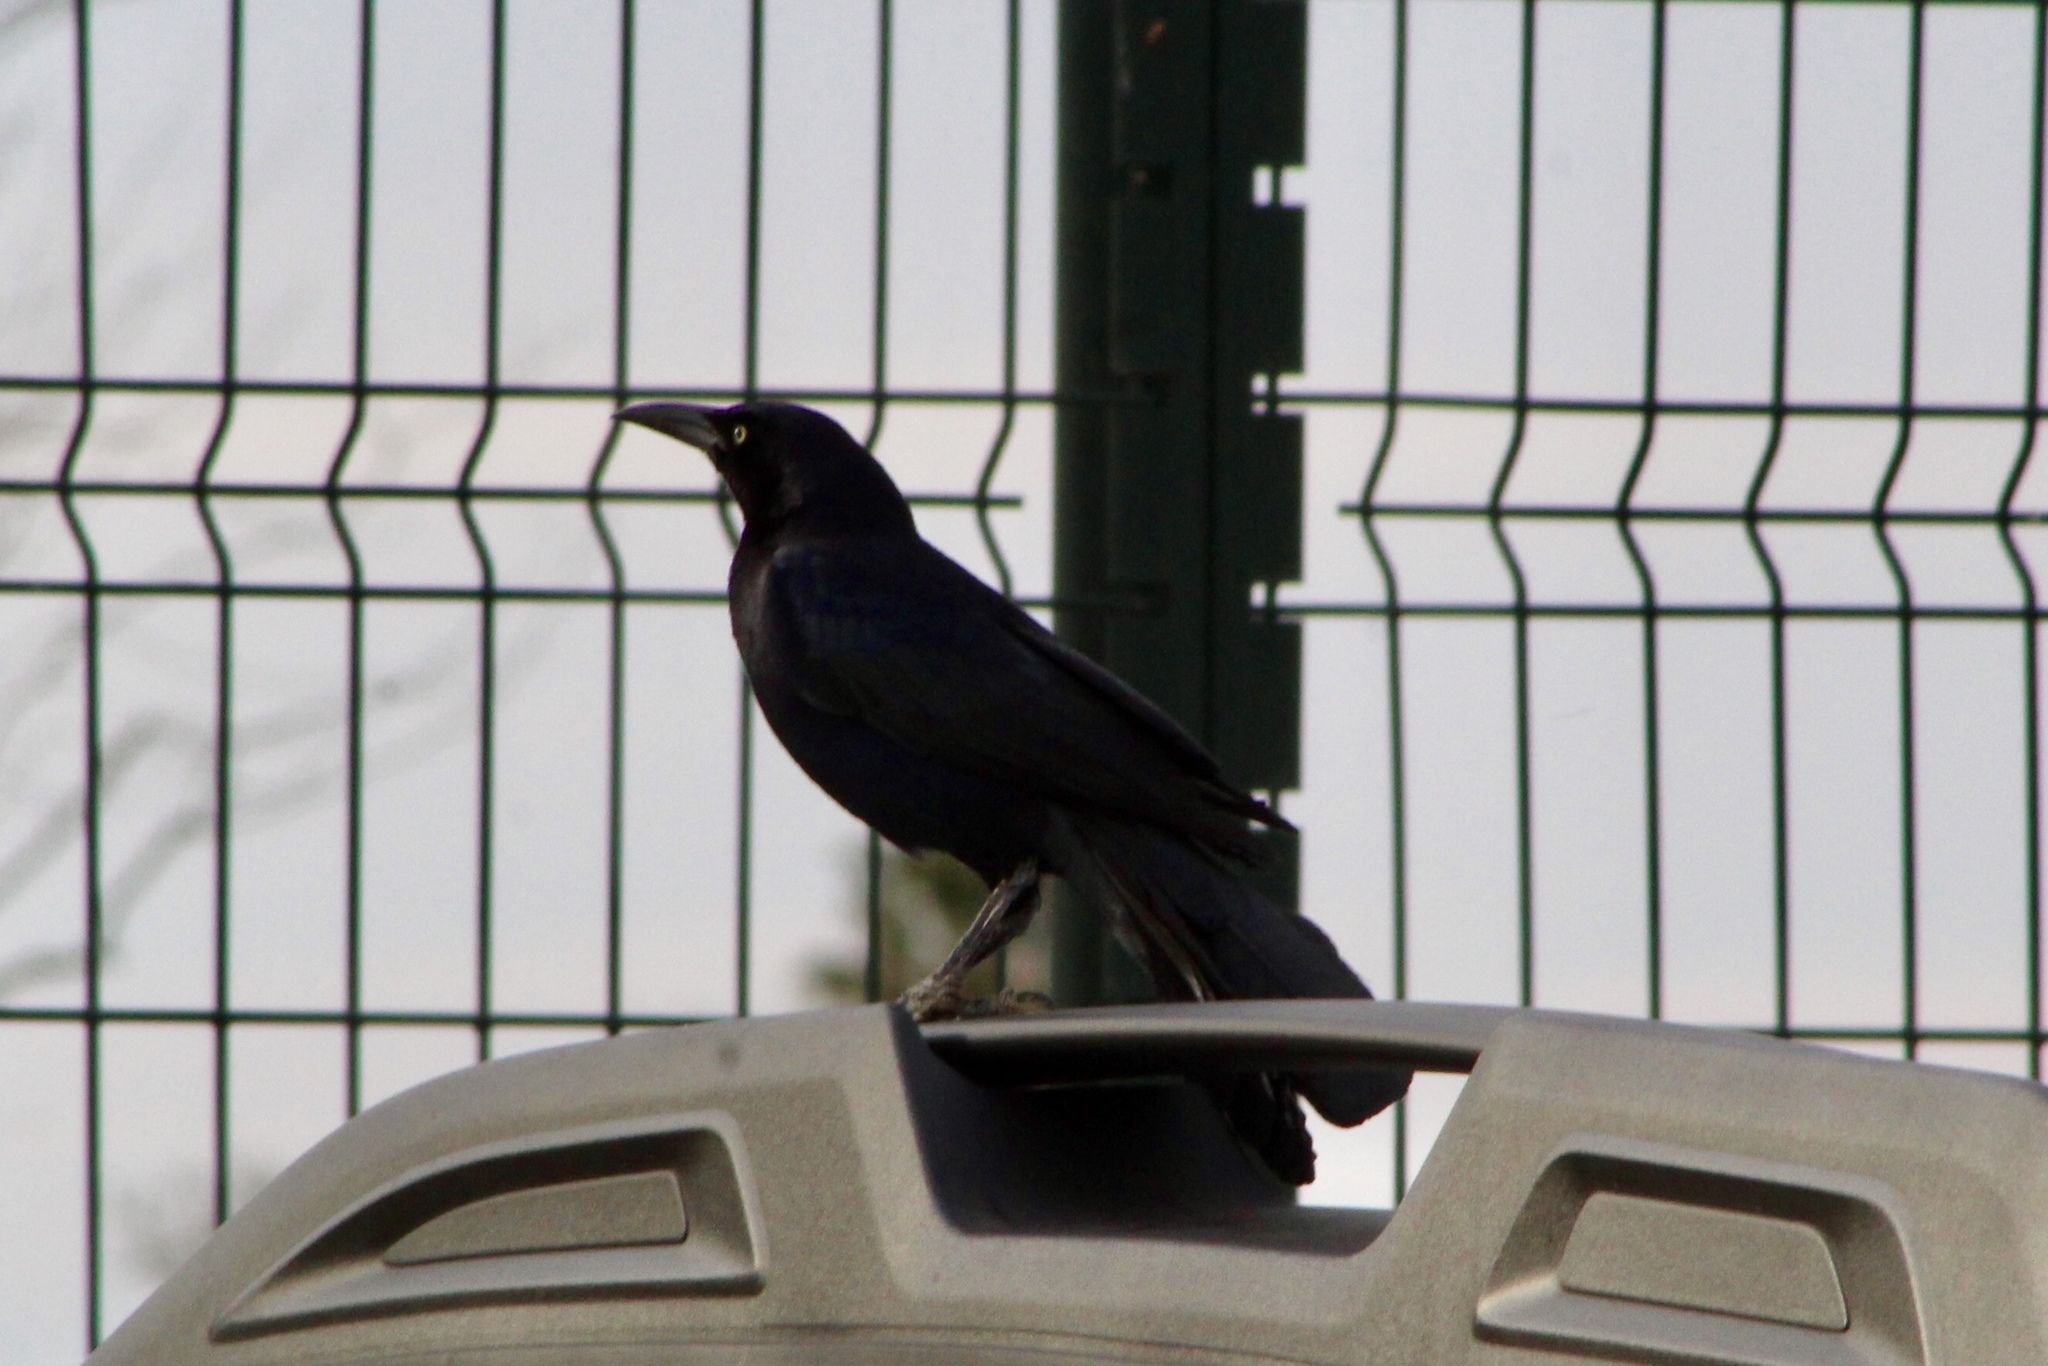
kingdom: Animalia
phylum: Chordata
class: Aves
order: Passeriformes
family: Icteridae
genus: Quiscalus
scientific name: Quiscalus mexicanus
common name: Great-tailed grackle
